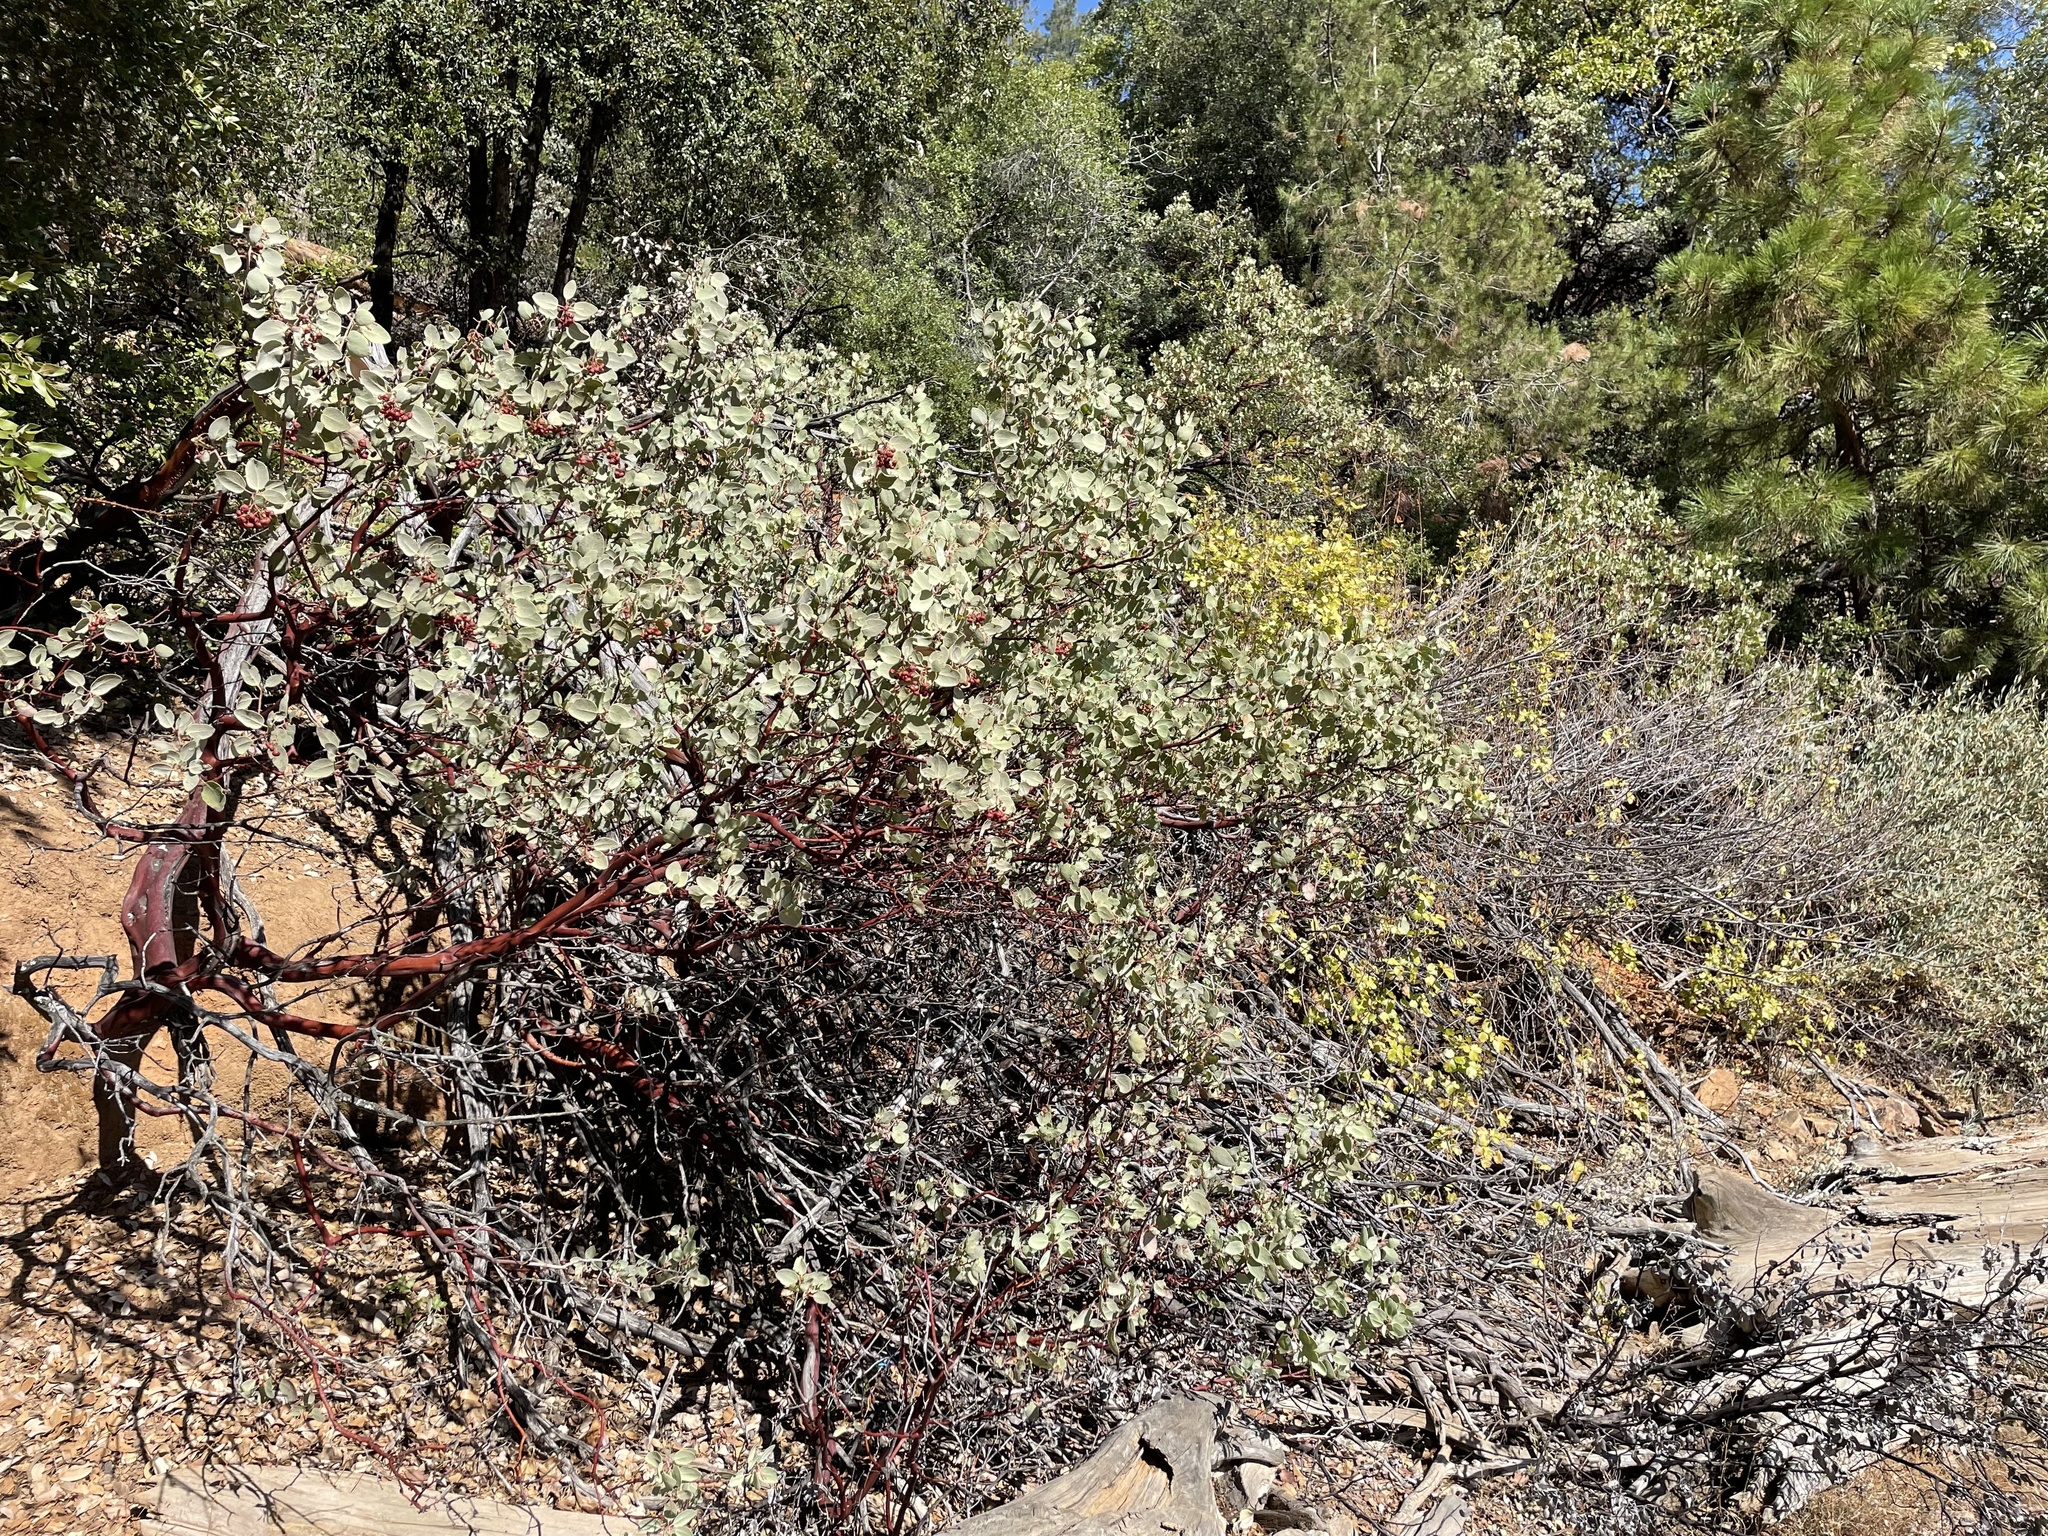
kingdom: Plantae
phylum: Tracheophyta
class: Magnoliopsida
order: Ericales
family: Ericaceae
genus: Arctostaphylos
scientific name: Arctostaphylos viscida
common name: White-leaf manzanita
